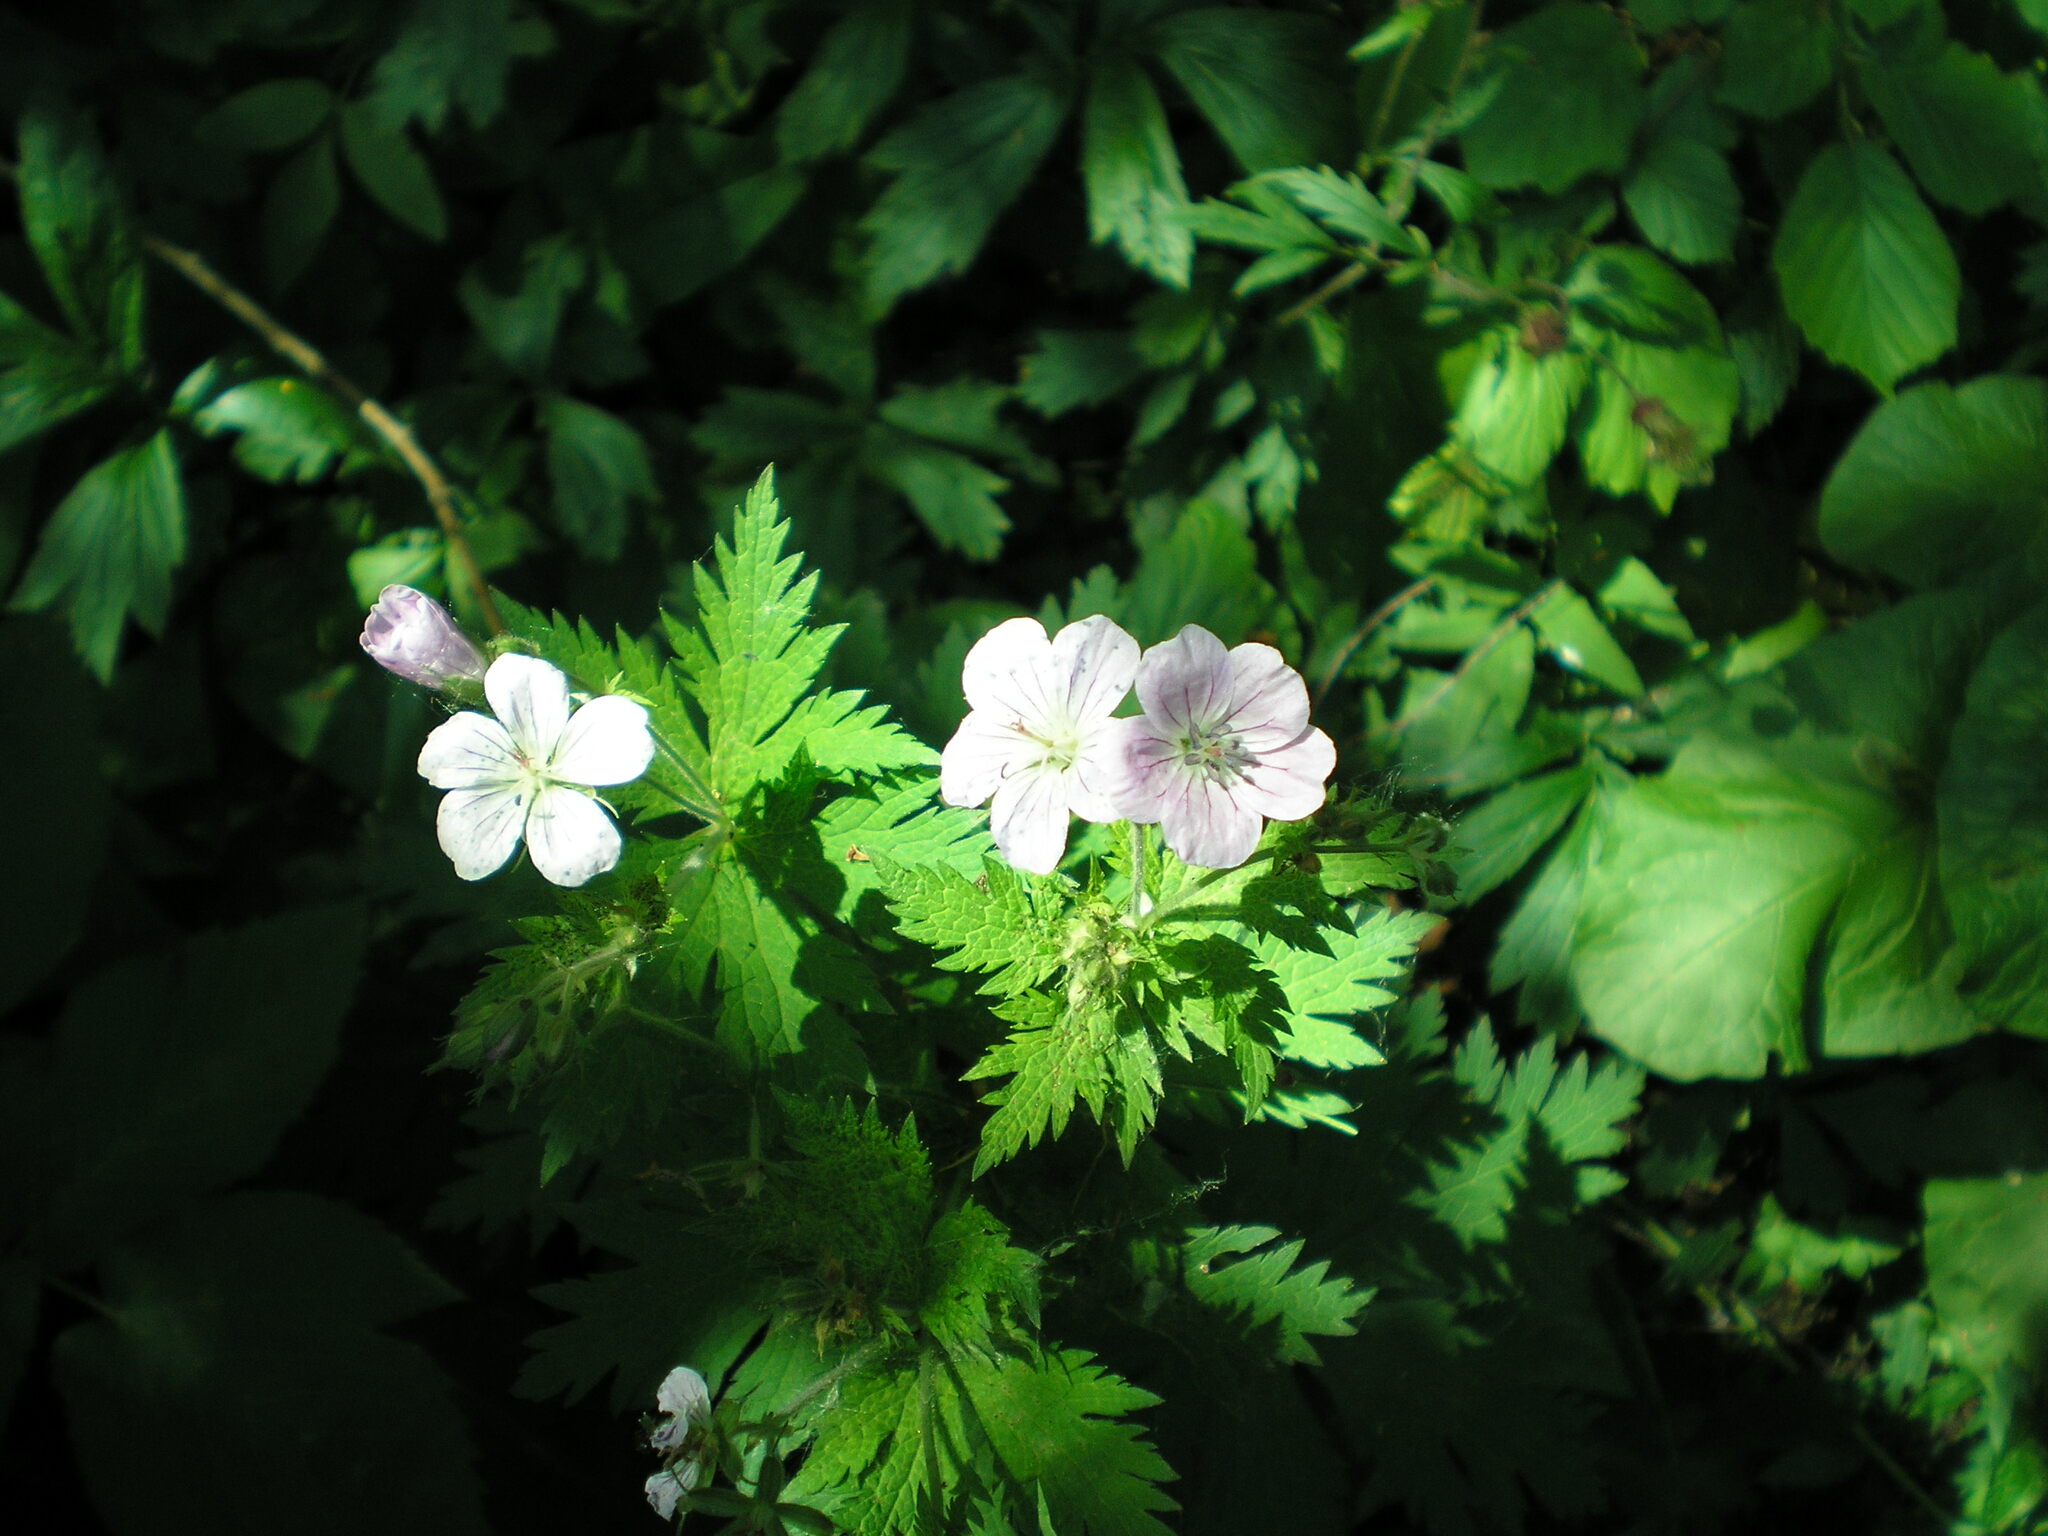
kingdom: Plantae
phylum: Tracheophyta
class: Magnoliopsida
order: Geraniales
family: Geraniaceae
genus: Geranium
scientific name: Geranium sylvaticum
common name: Wood crane's-bill
